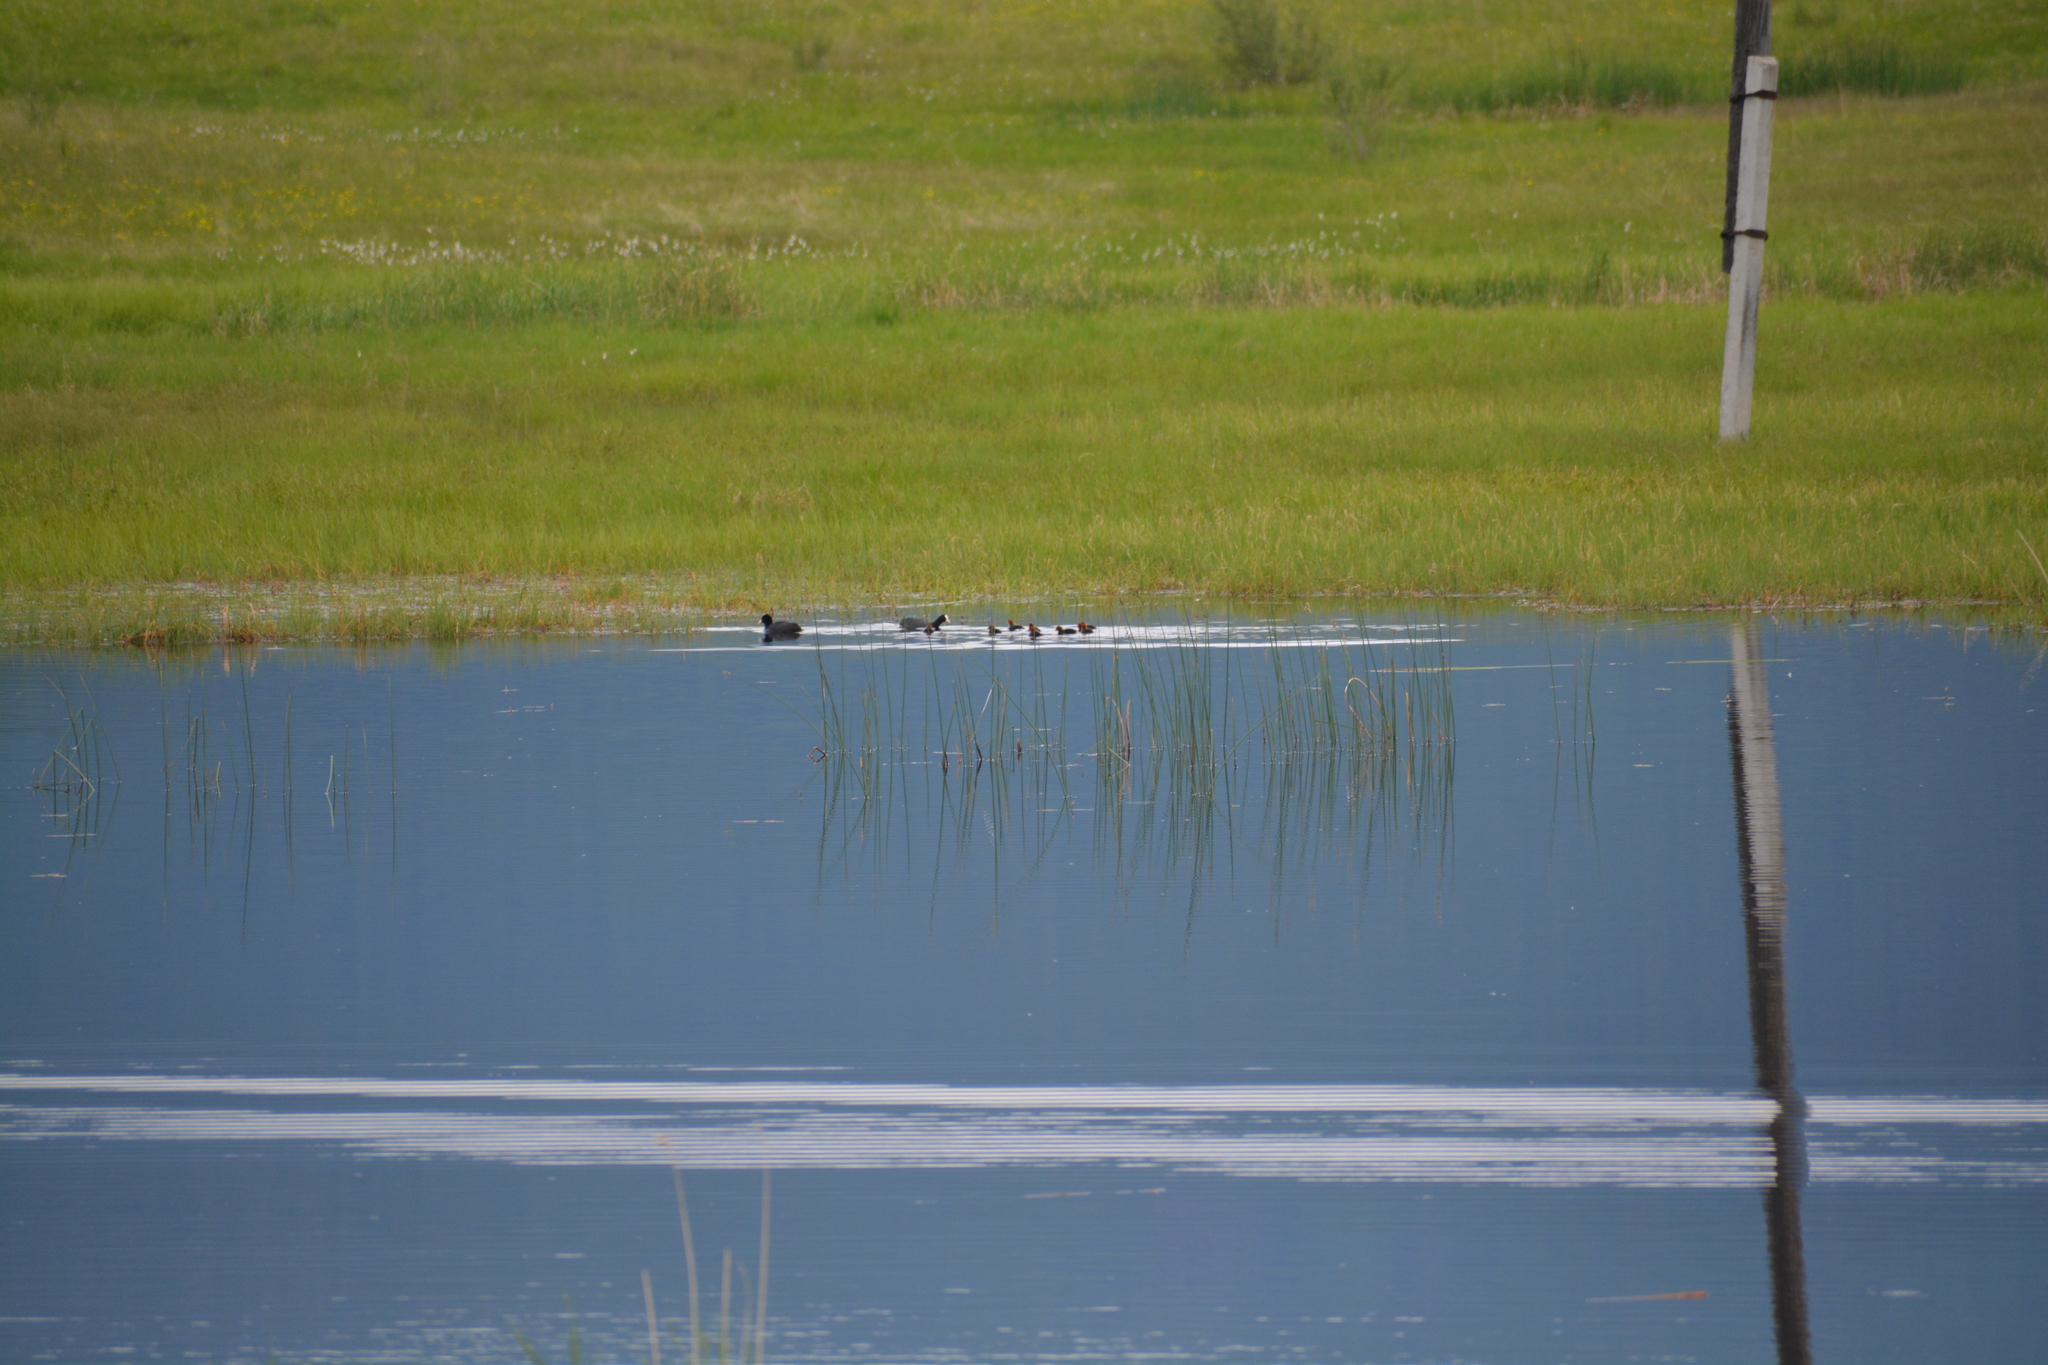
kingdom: Animalia
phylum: Chordata
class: Aves
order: Gruiformes
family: Rallidae
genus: Fulica
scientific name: Fulica atra
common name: Eurasian coot
